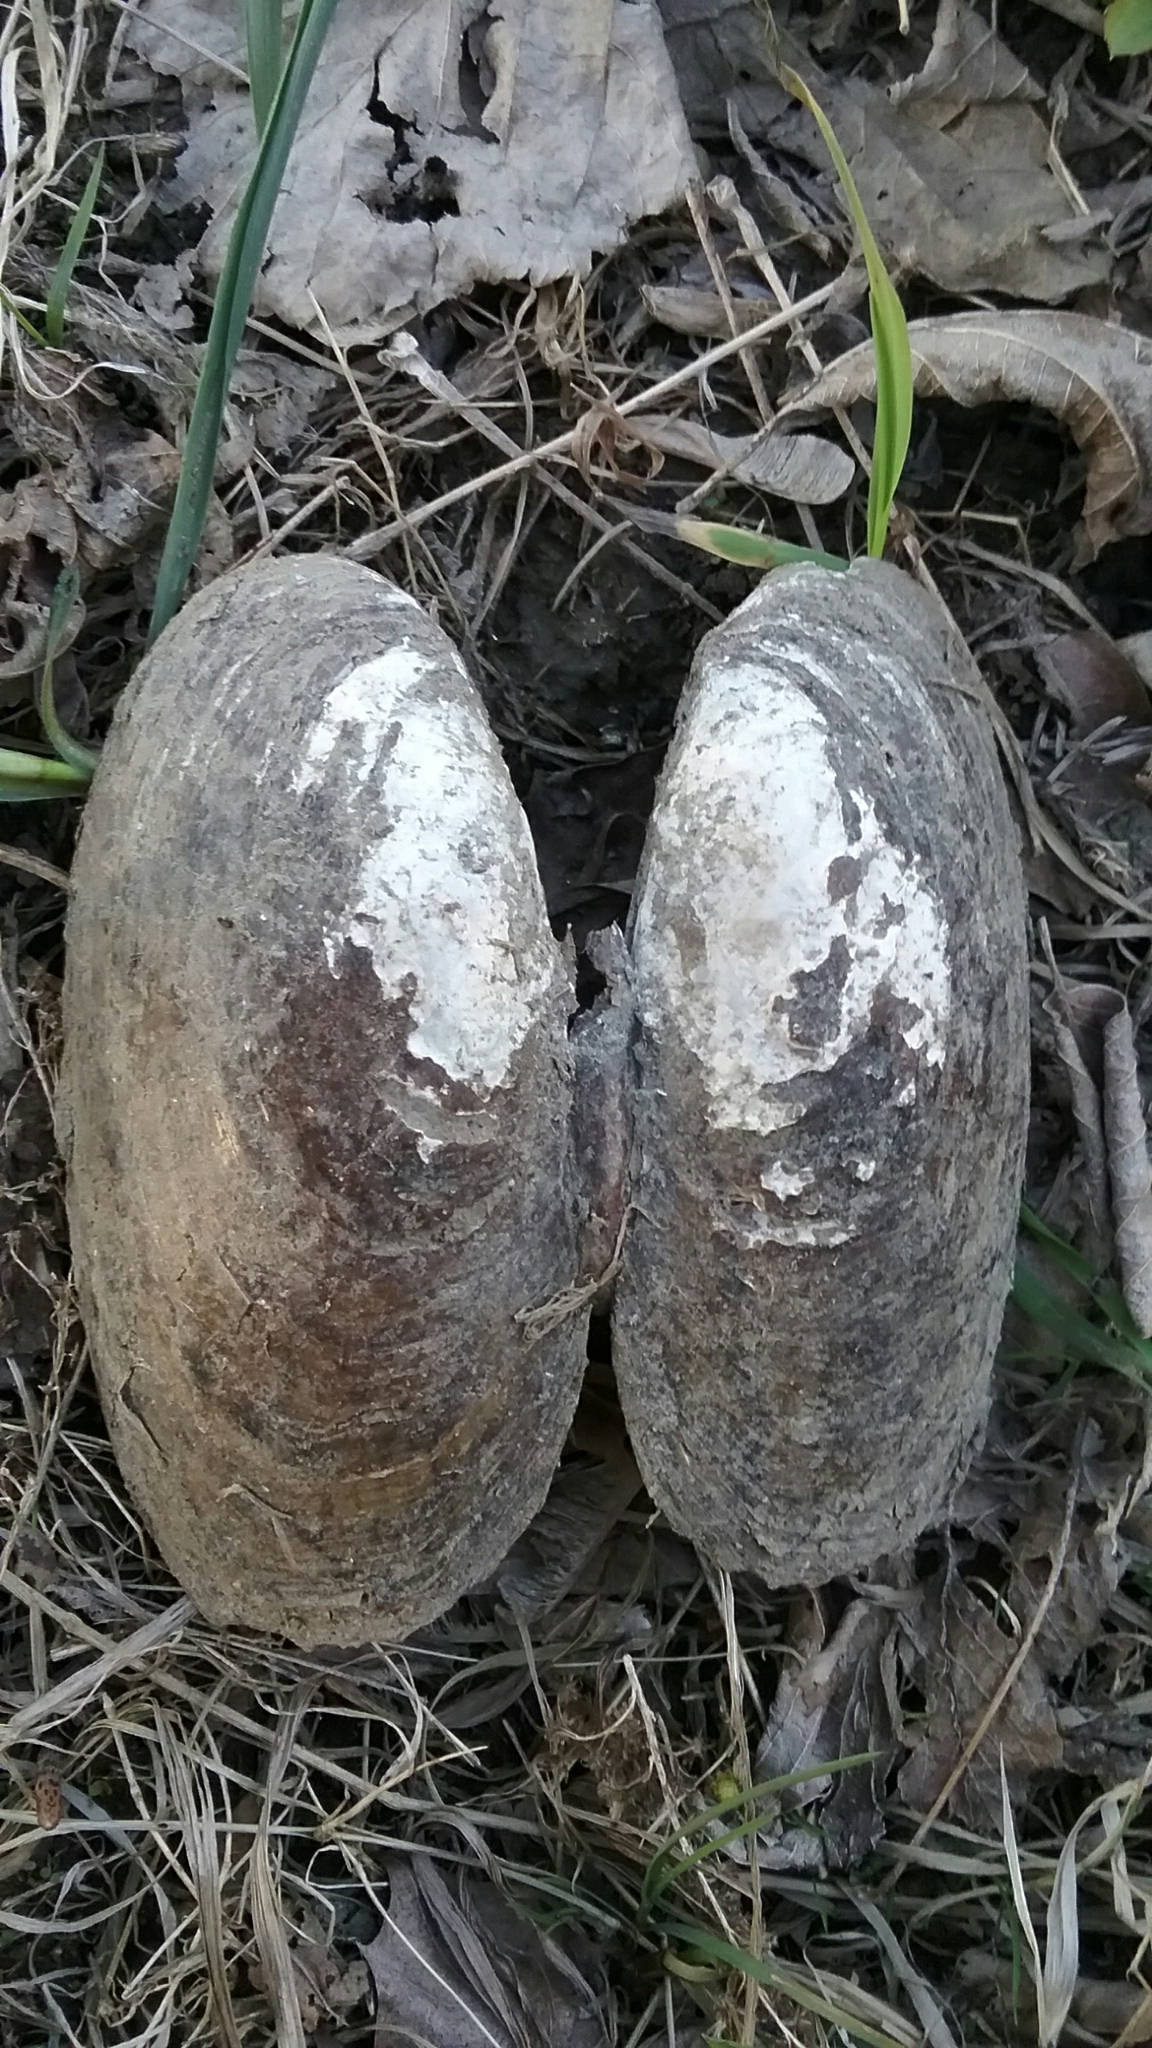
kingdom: Animalia
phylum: Mollusca
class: Bivalvia
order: Unionida
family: Unionidae
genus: Lampsilis
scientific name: Lampsilis radiata
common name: Eastern lampmussel
